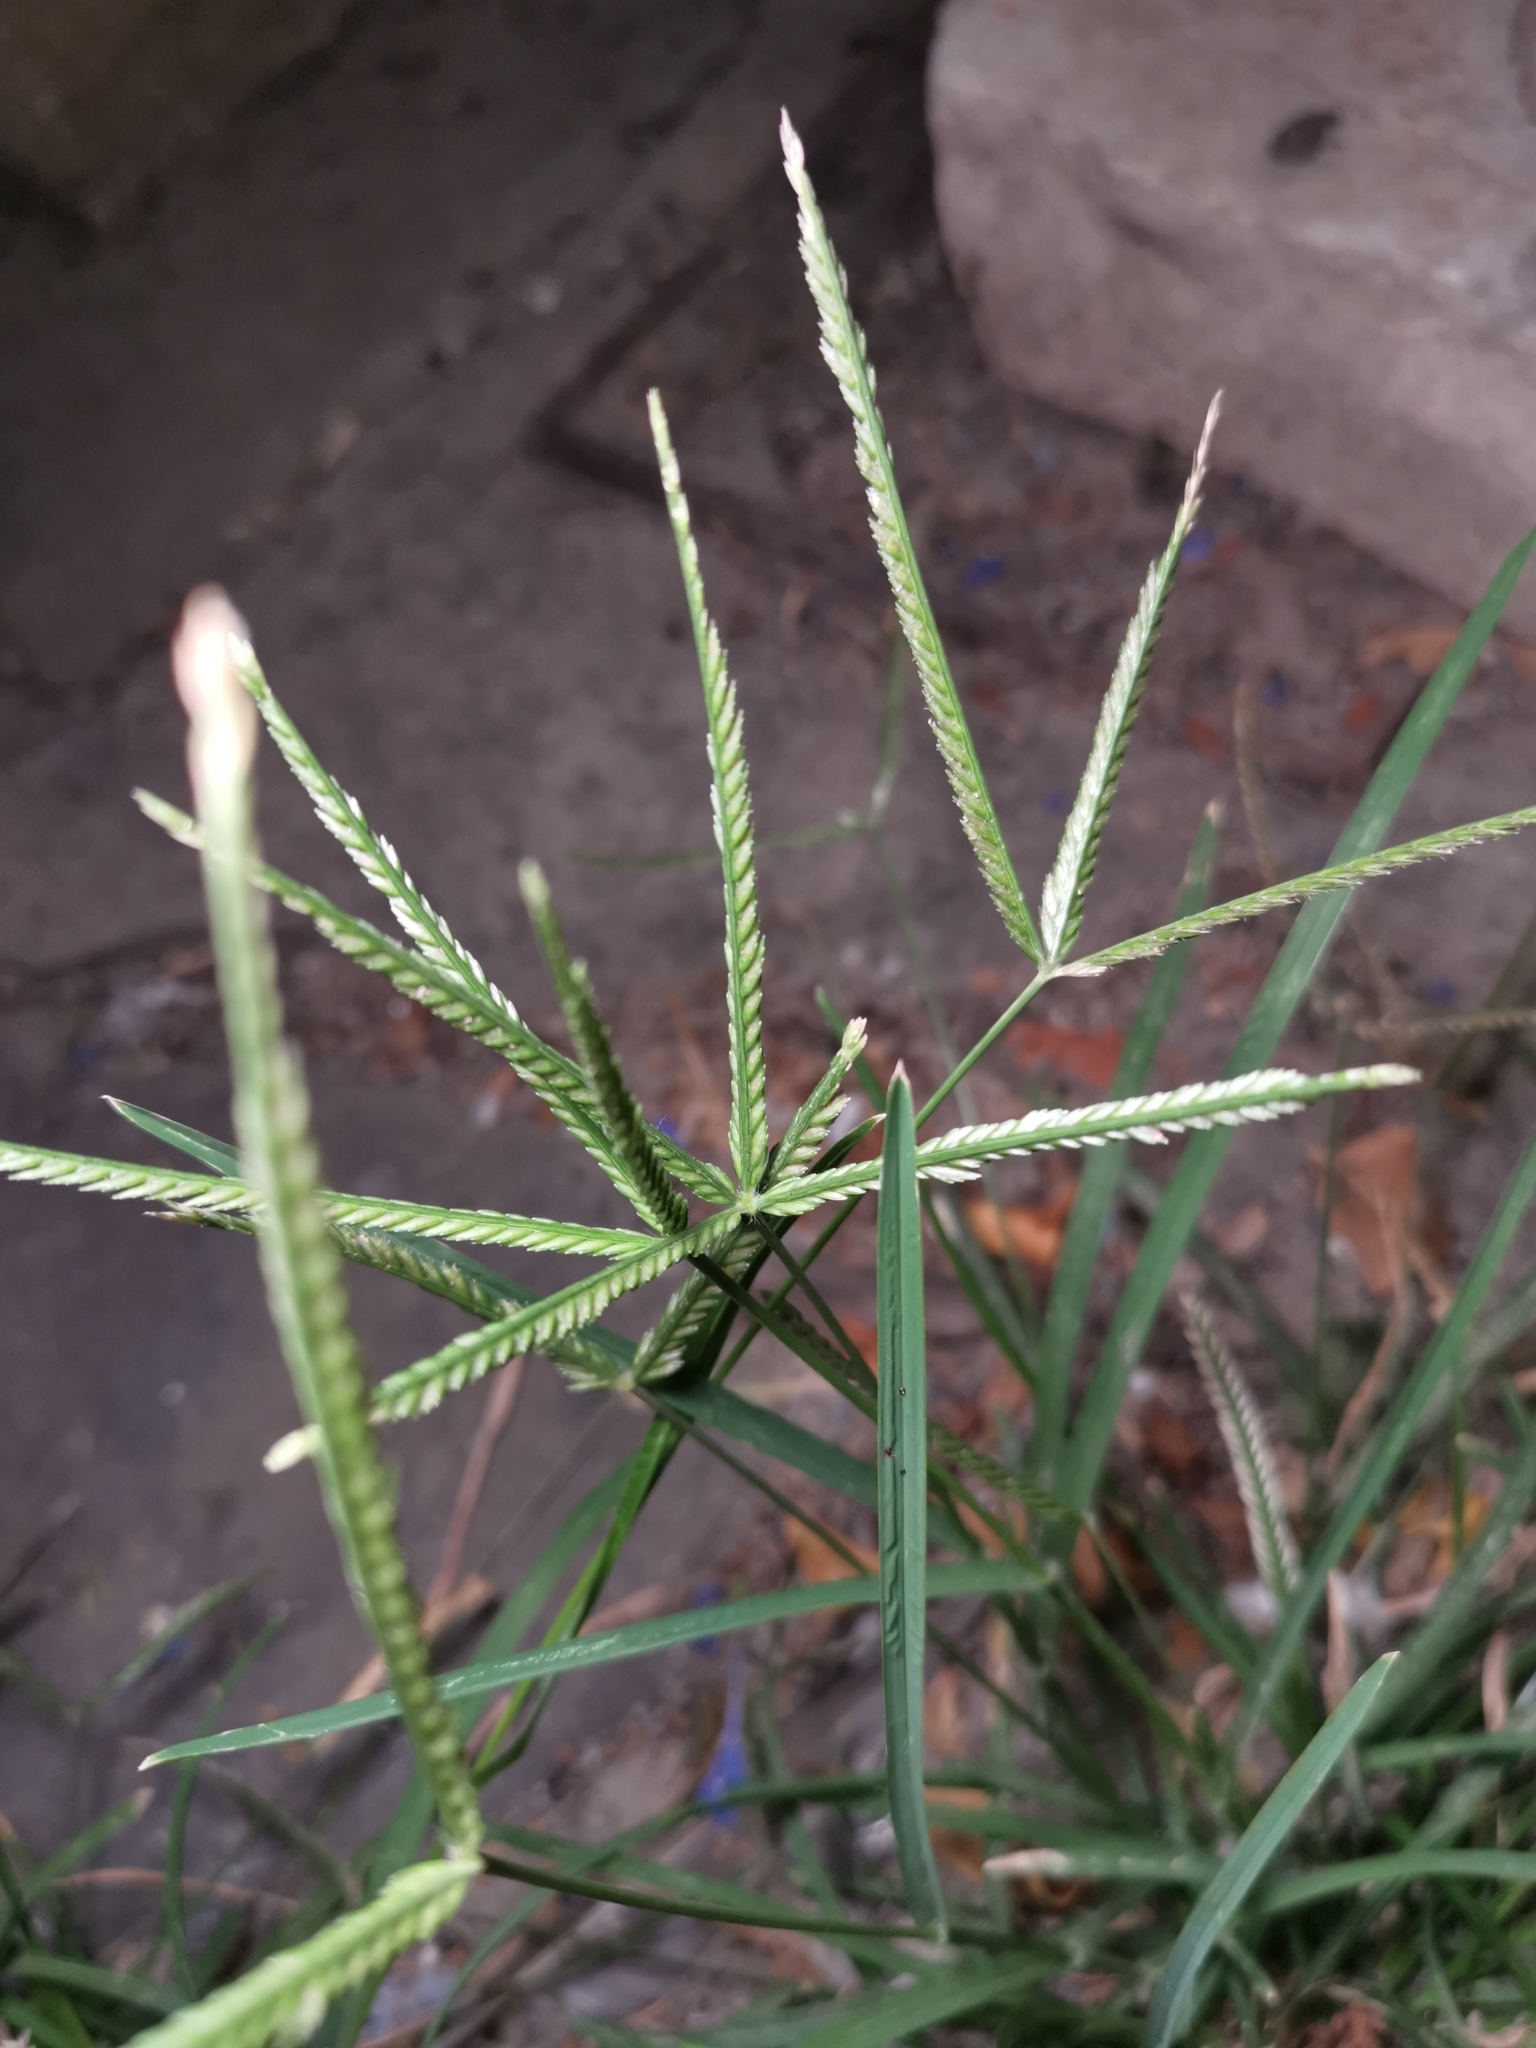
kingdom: Plantae
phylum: Tracheophyta
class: Liliopsida
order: Poales
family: Poaceae
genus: Eleusine
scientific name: Eleusine indica
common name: Yard-grass
